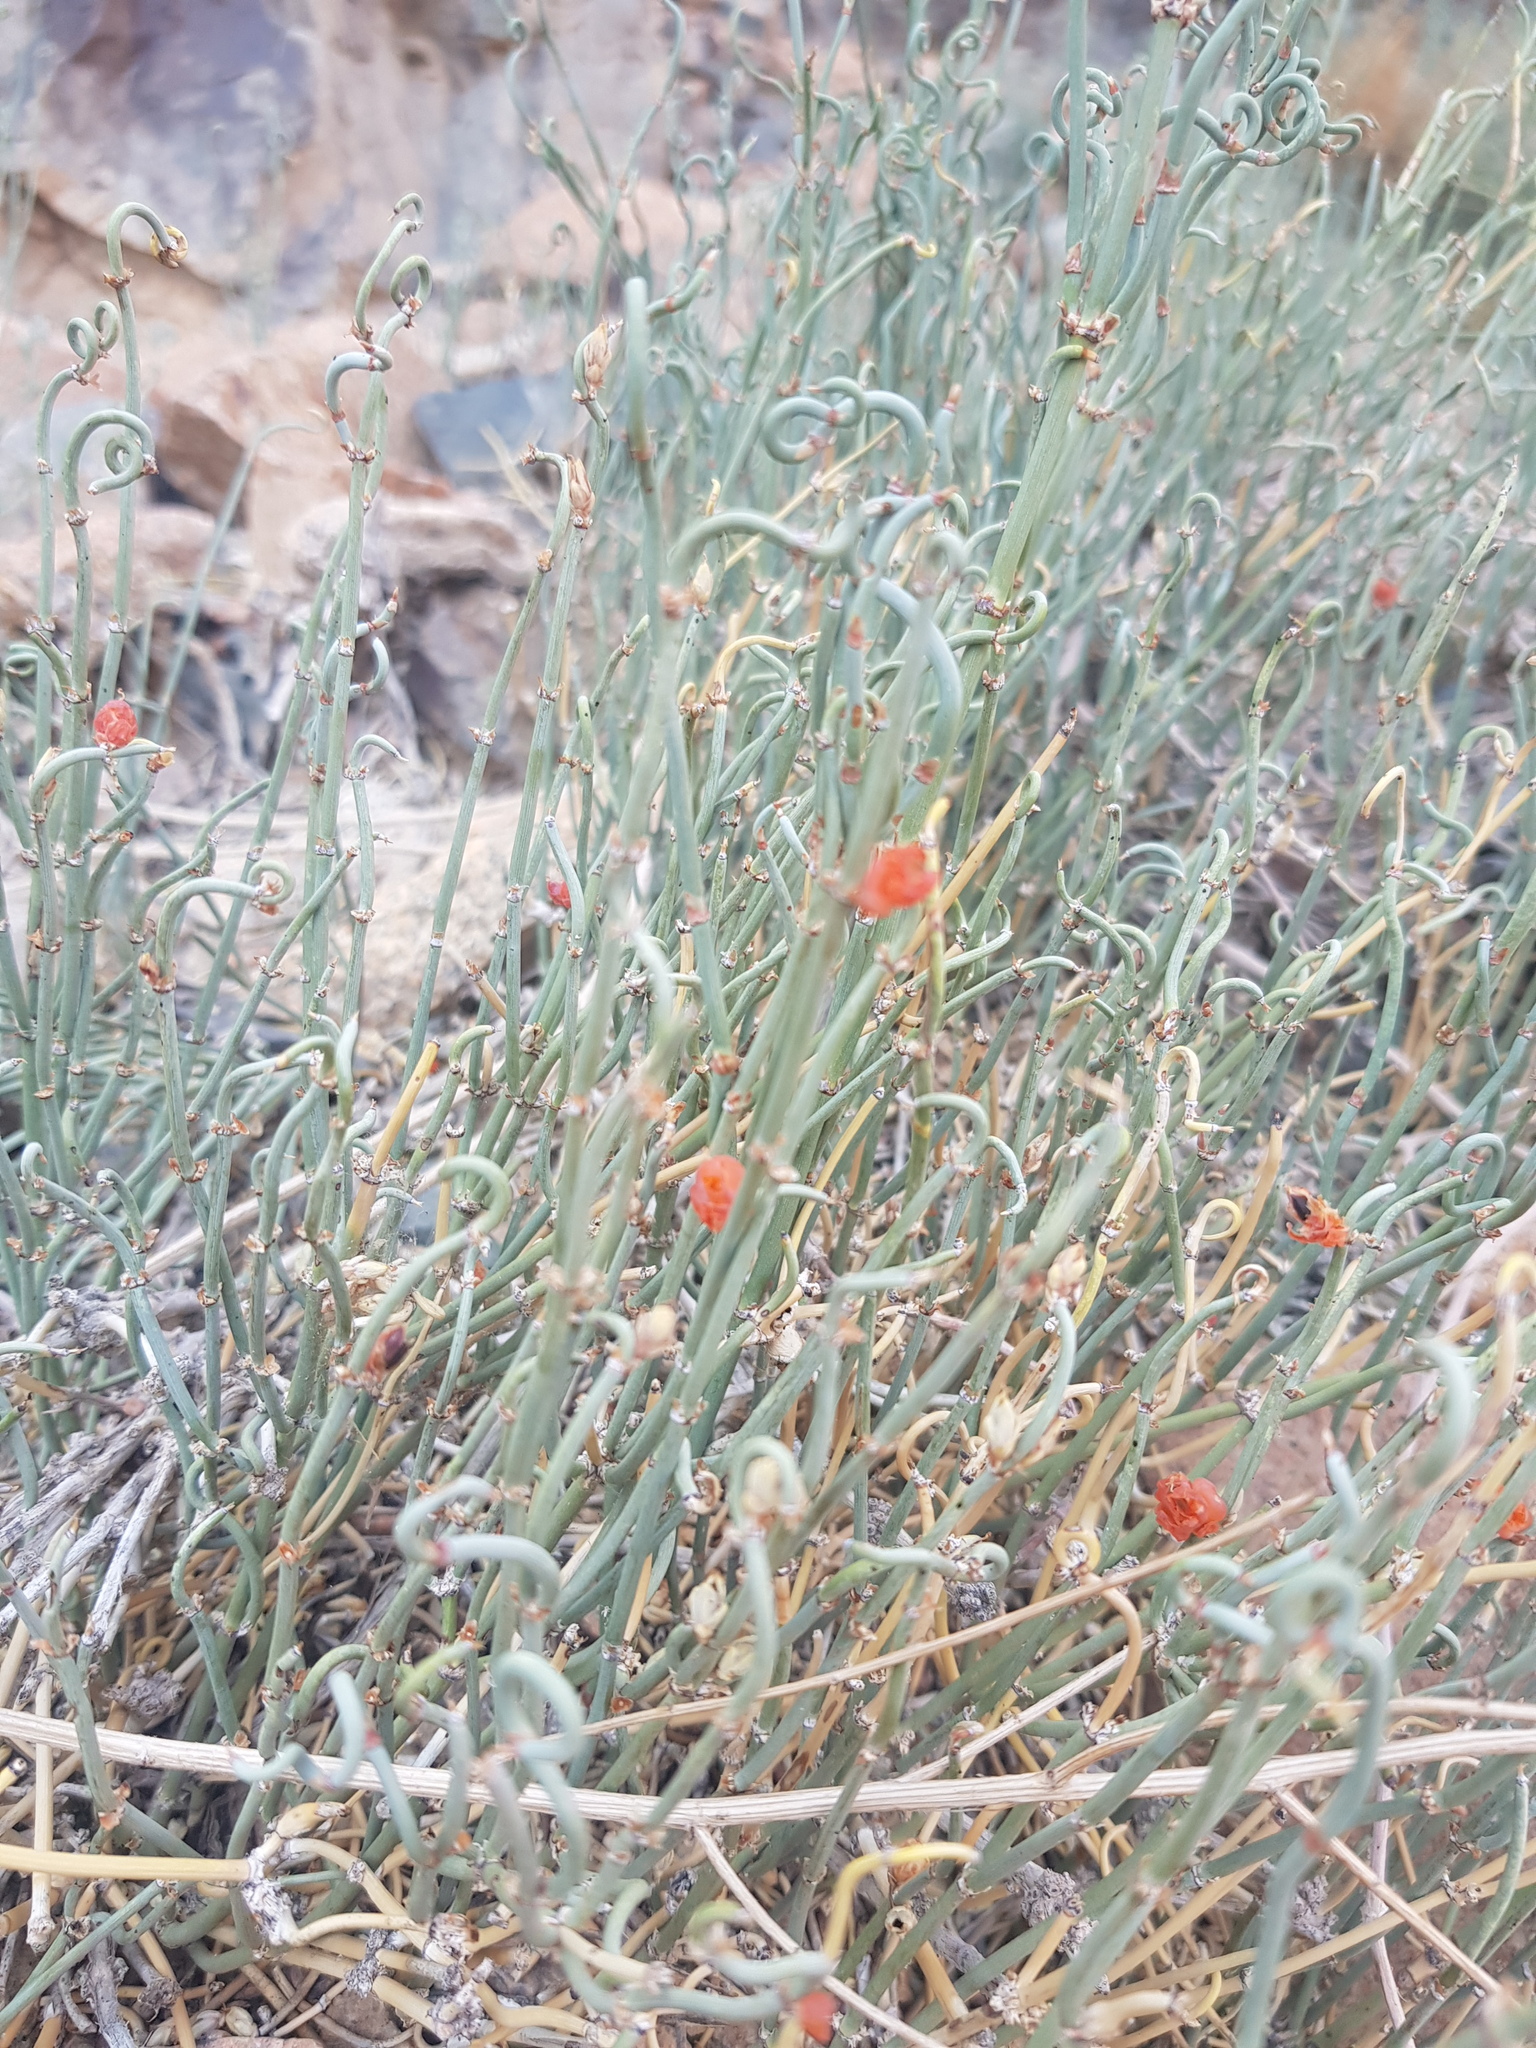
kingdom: Plantae
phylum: Tracheophyta
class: Gnetopsida
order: Ephedrales
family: Ephedraceae
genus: Ephedra
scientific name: Ephedra equisetina
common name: Mongolian ephedra
